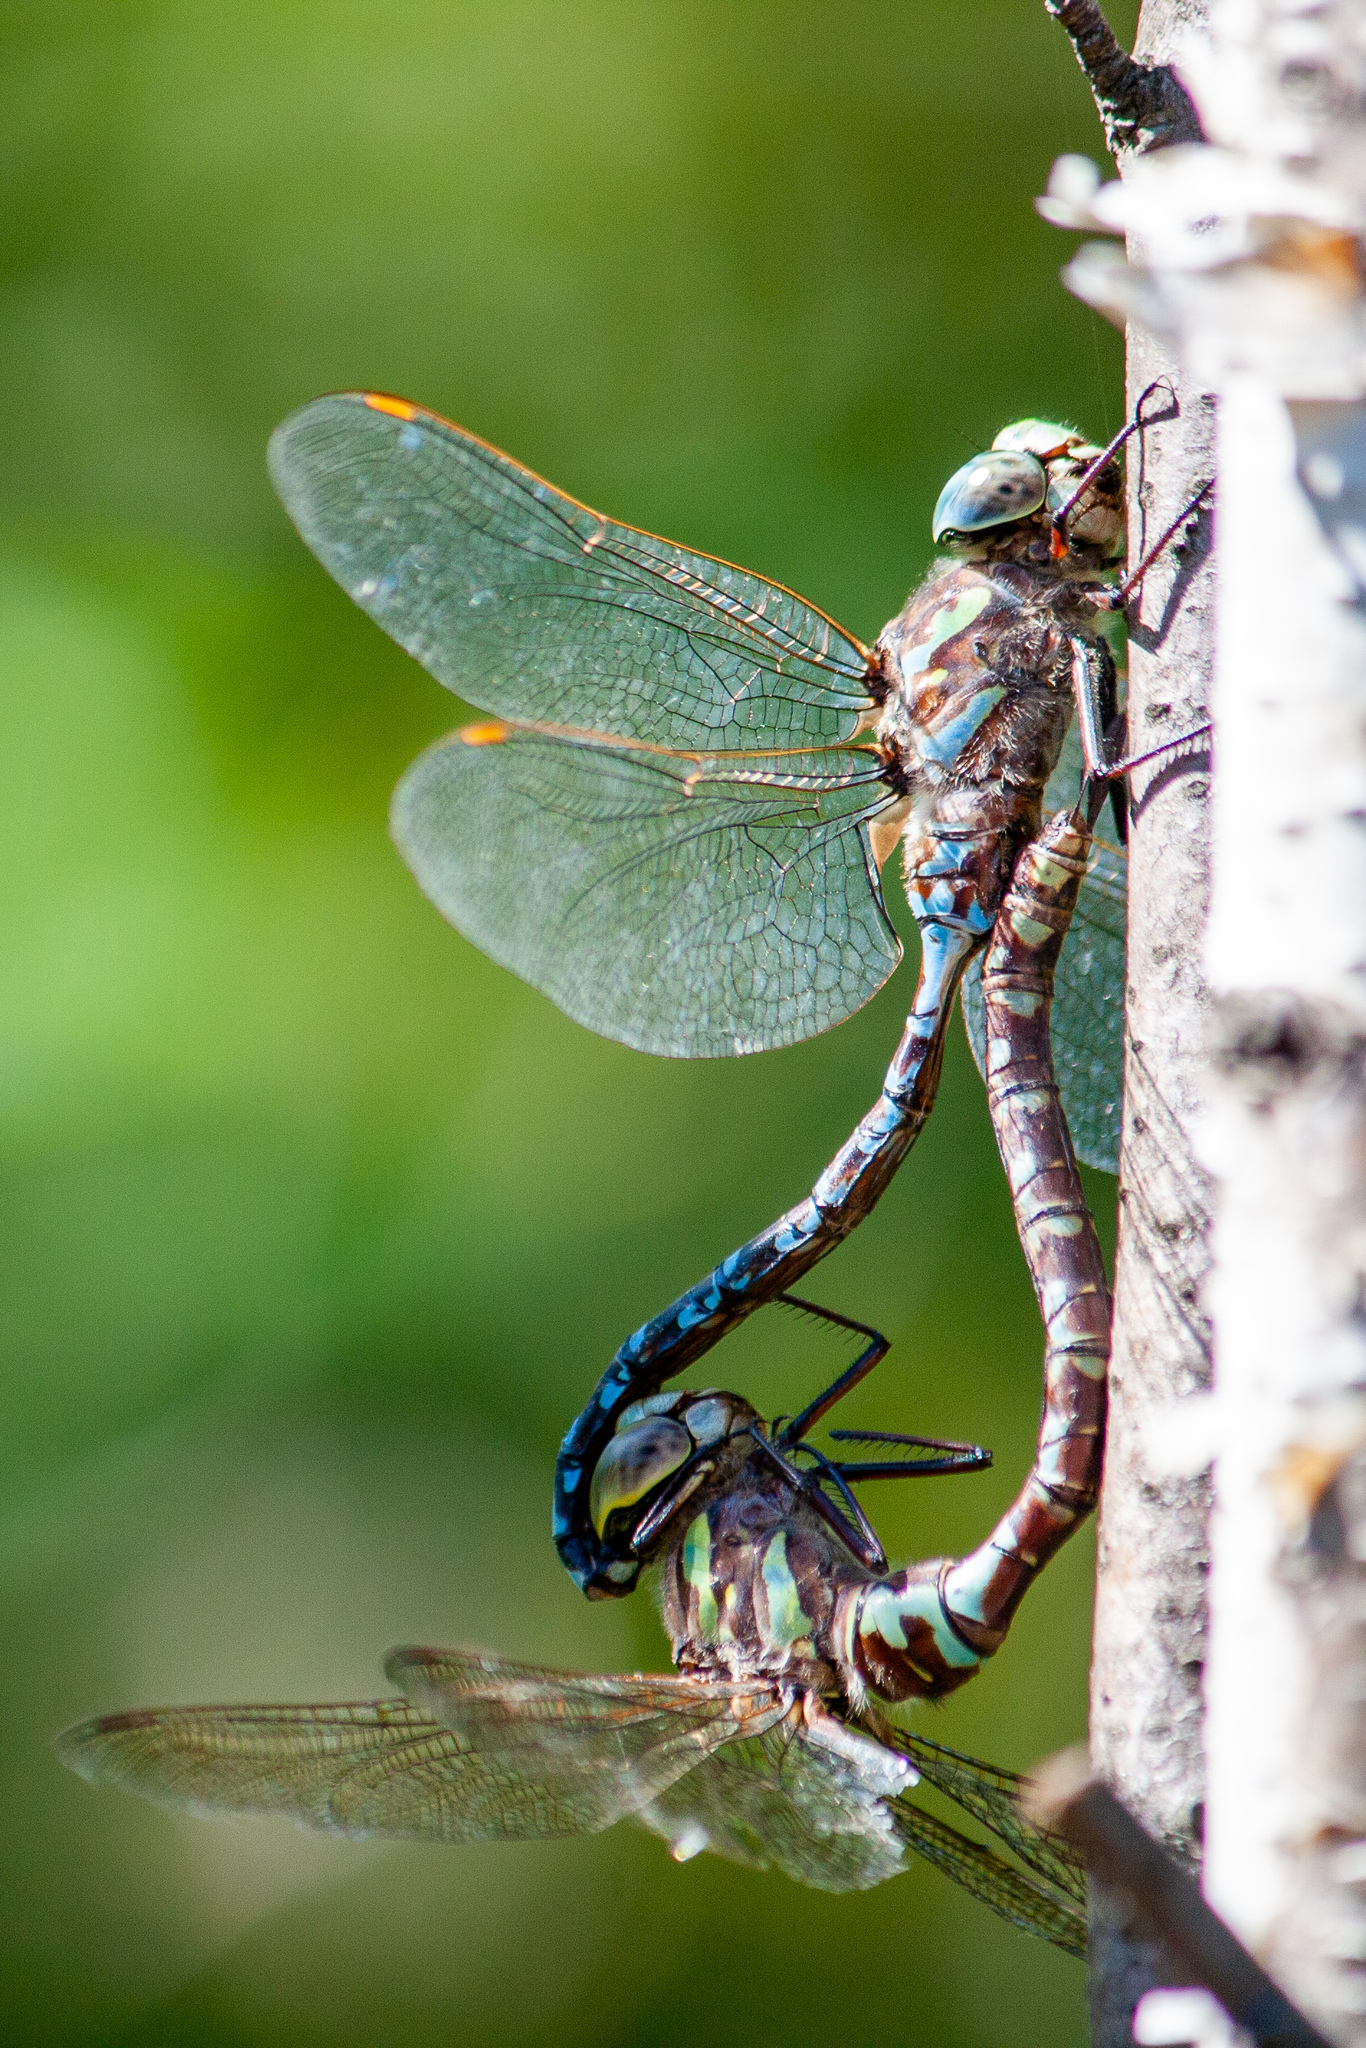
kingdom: Animalia
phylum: Arthropoda
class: Insecta
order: Odonata
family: Aeshnidae
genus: Aeshna
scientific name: Aeshna canadensis
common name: Canada darner
